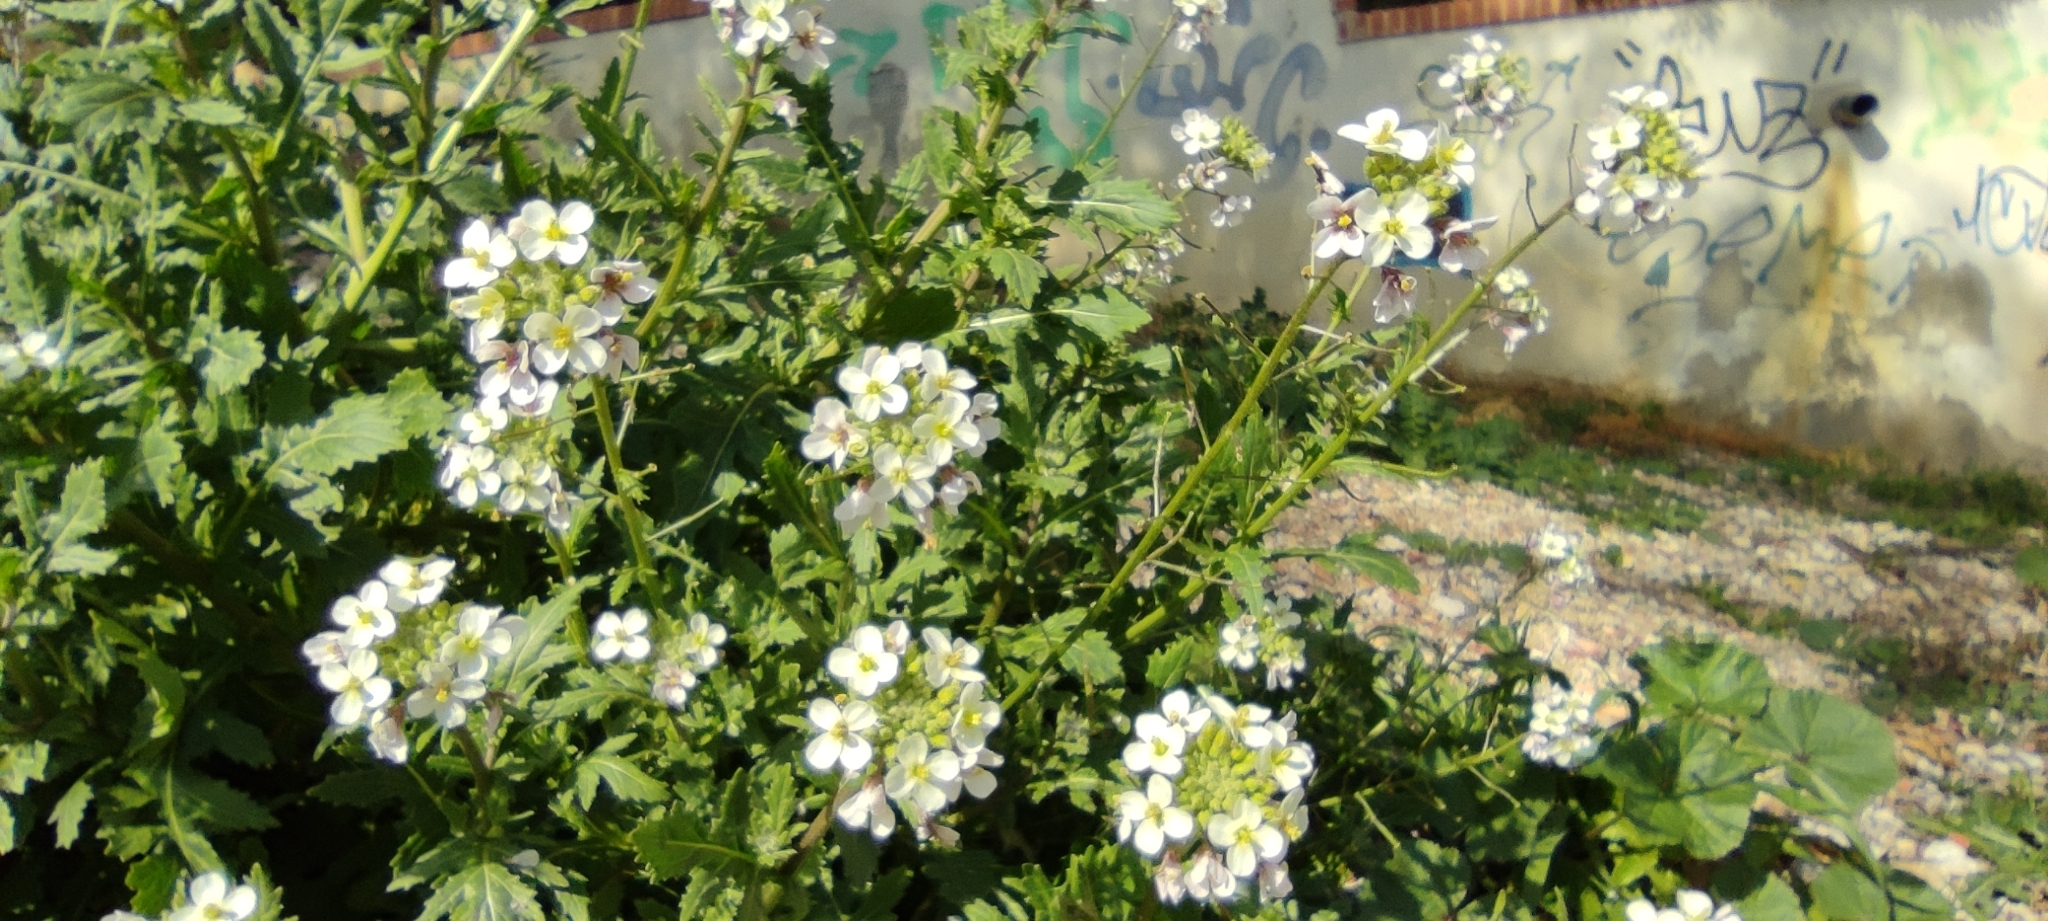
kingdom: Plantae
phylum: Tracheophyta
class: Magnoliopsida
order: Brassicales
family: Brassicaceae
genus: Diplotaxis
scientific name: Diplotaxis erucoides
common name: White rocket
